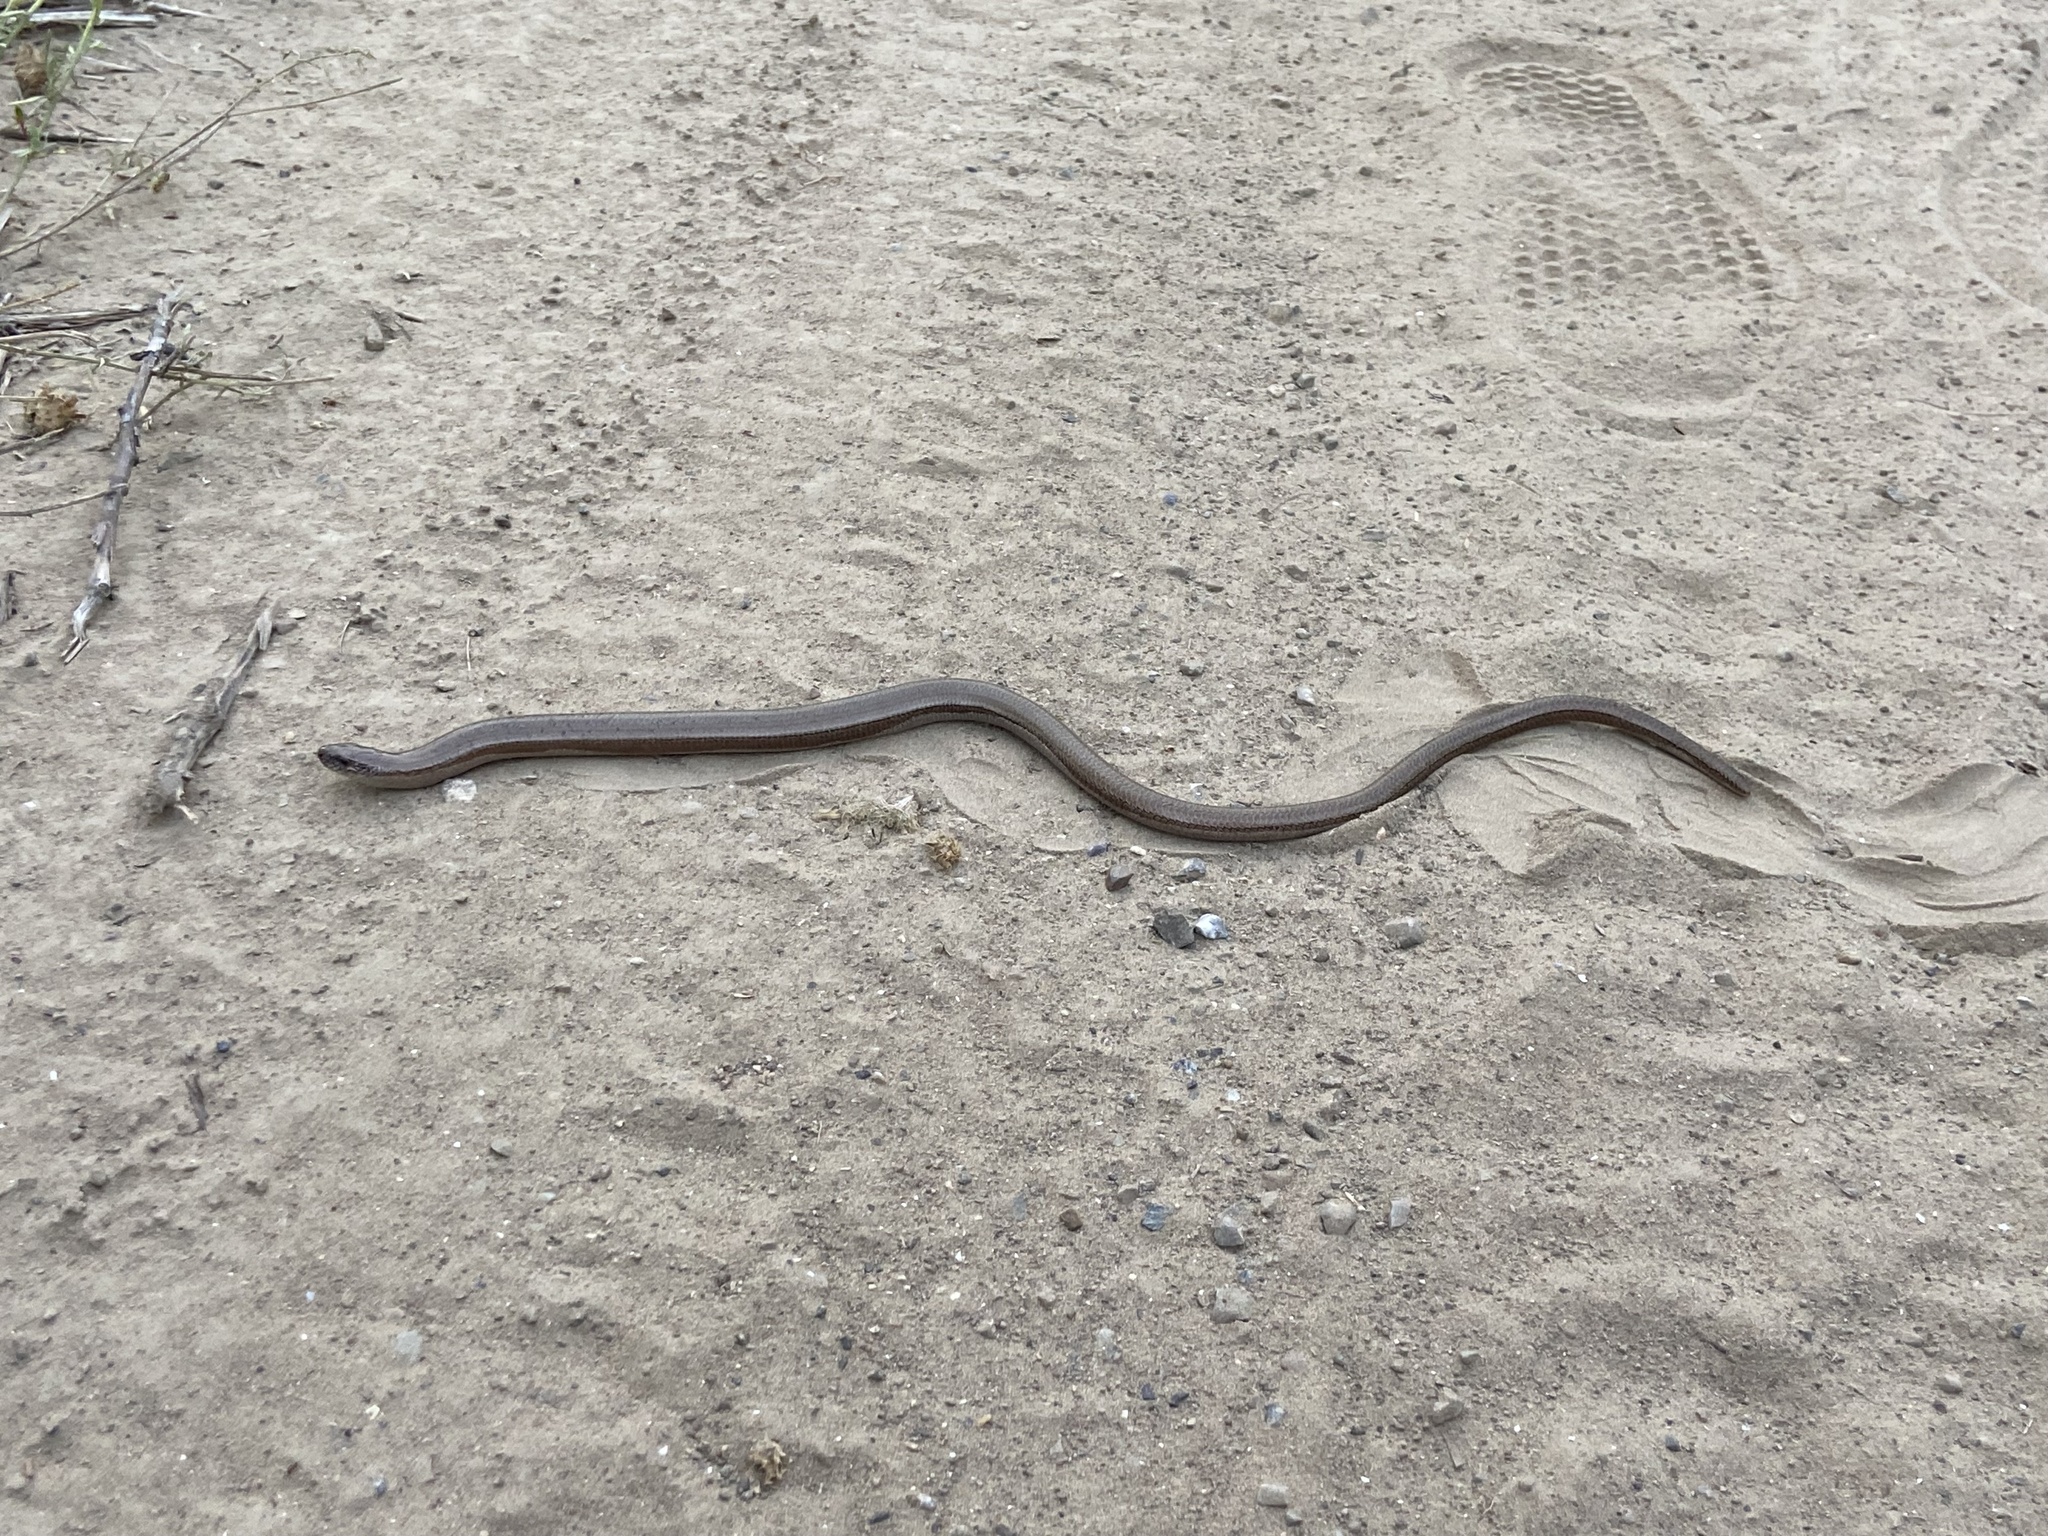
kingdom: Animalia
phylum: Chordata
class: Squamata
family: Anguidae
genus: Anguis
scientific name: Anguis fragilis
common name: Slow worm
